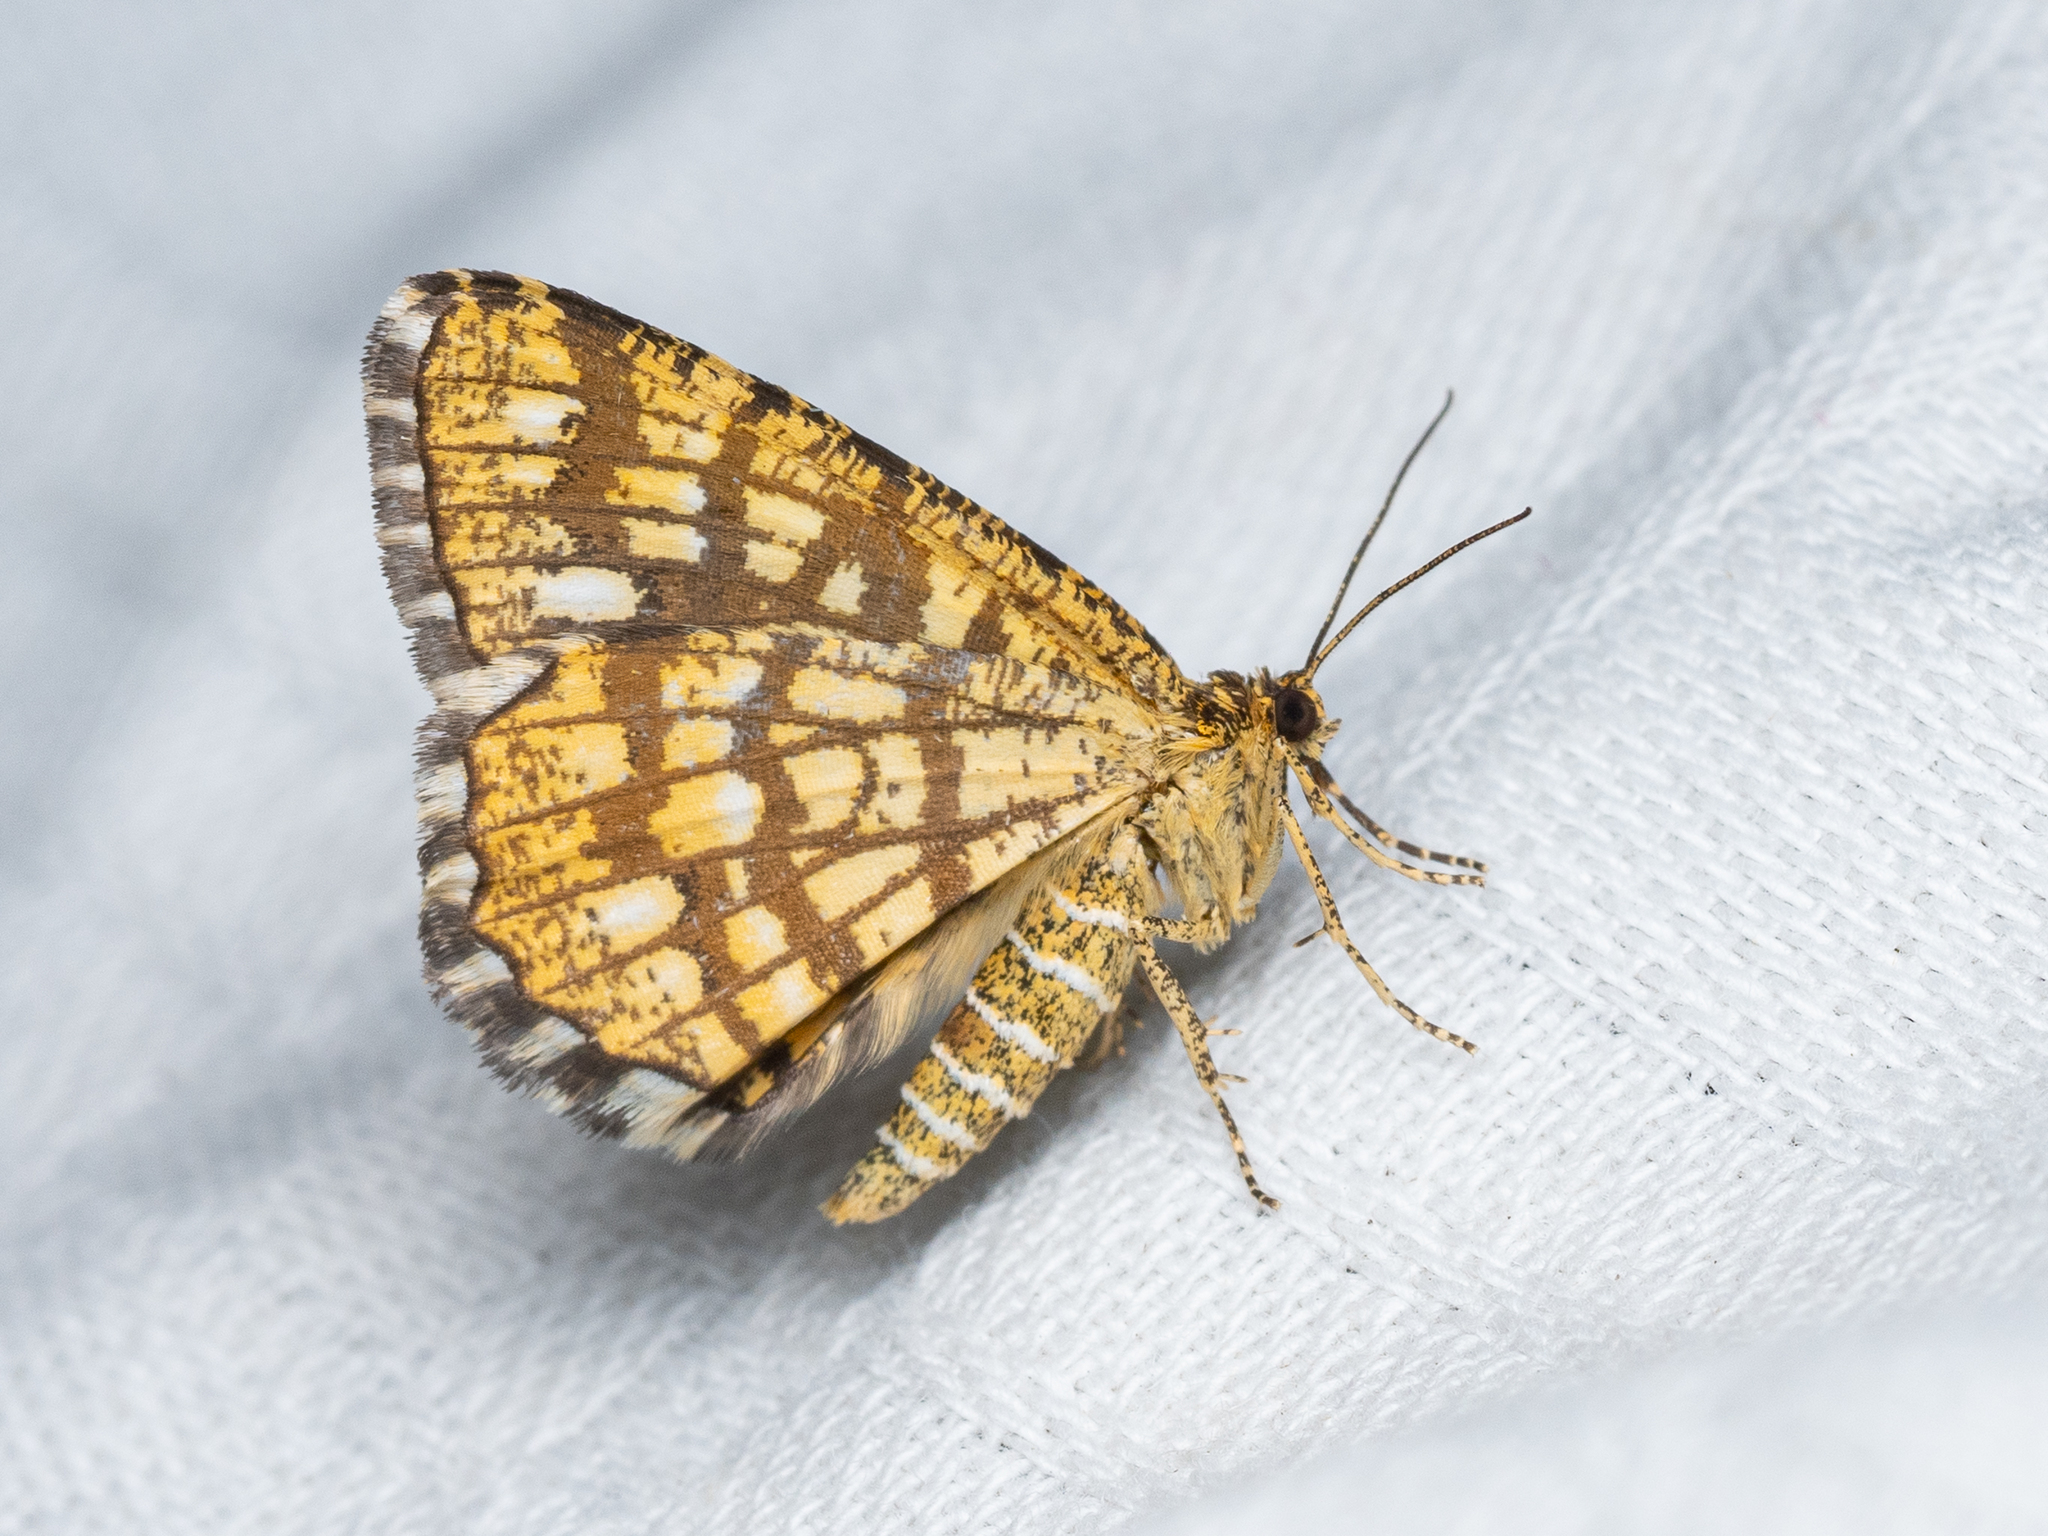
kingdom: Animalia
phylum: Arthropoda
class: Insecta
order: Lepidoptera
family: Geometridae
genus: Chiasmia
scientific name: Chiasmia clathrata
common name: Latticed heath
